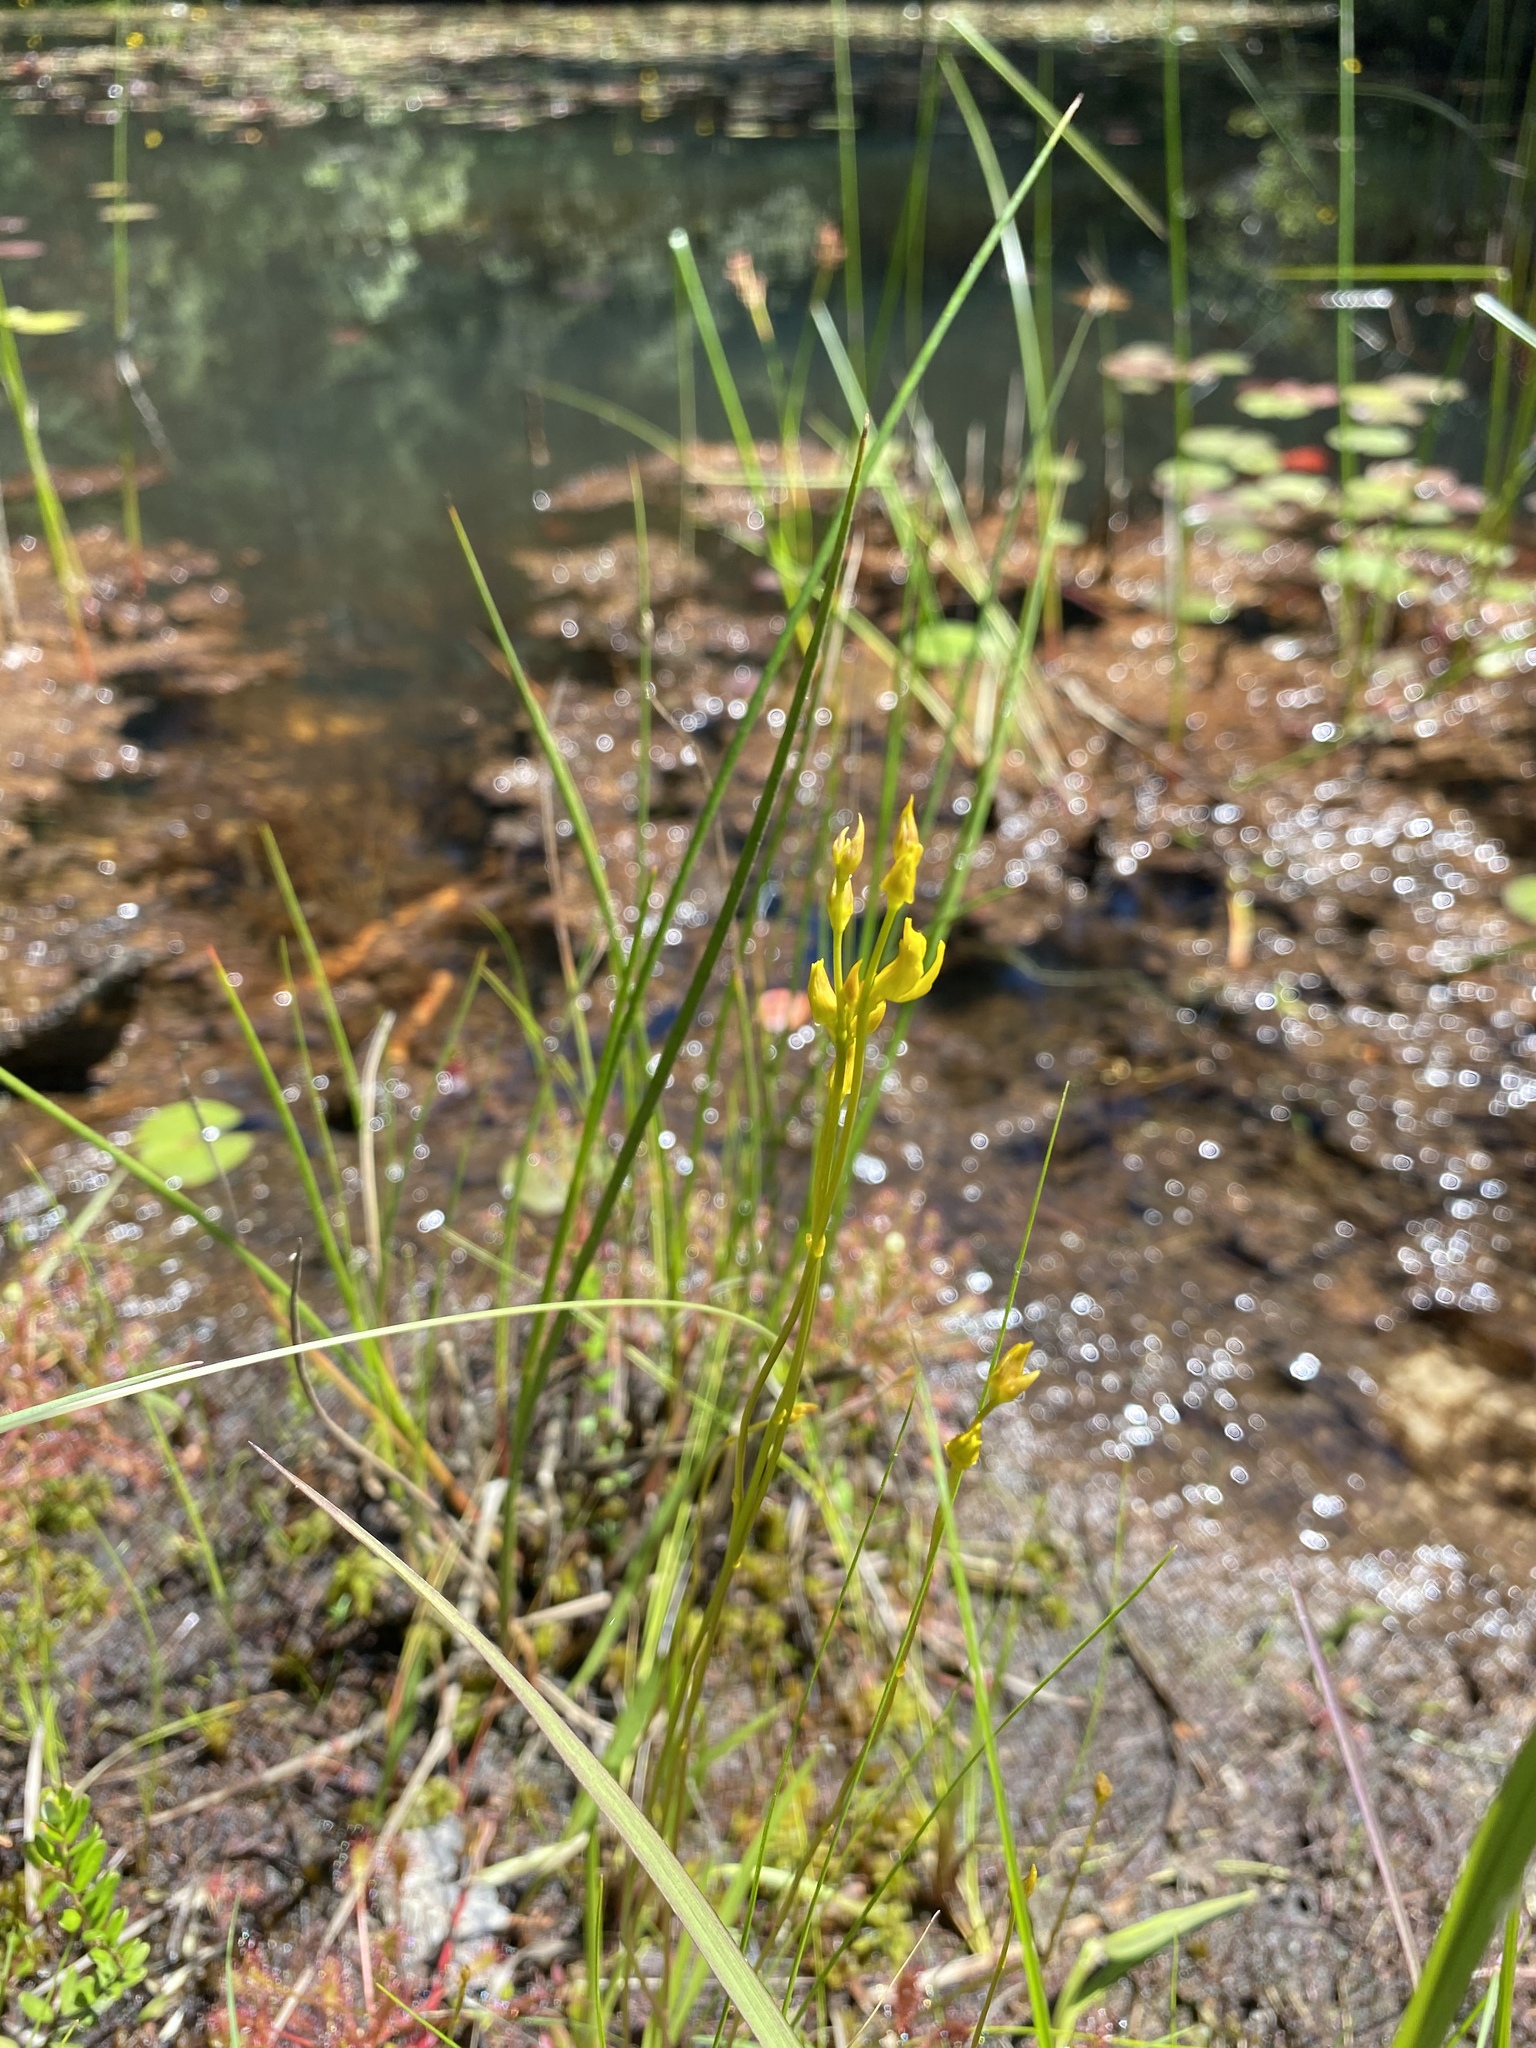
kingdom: Plantae
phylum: Tracheophyta
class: Magnoliopsida
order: Lamiales
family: Lentibulariaceae
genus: Utricularia
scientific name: Utricularia cornuta
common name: Horned bladderwort
